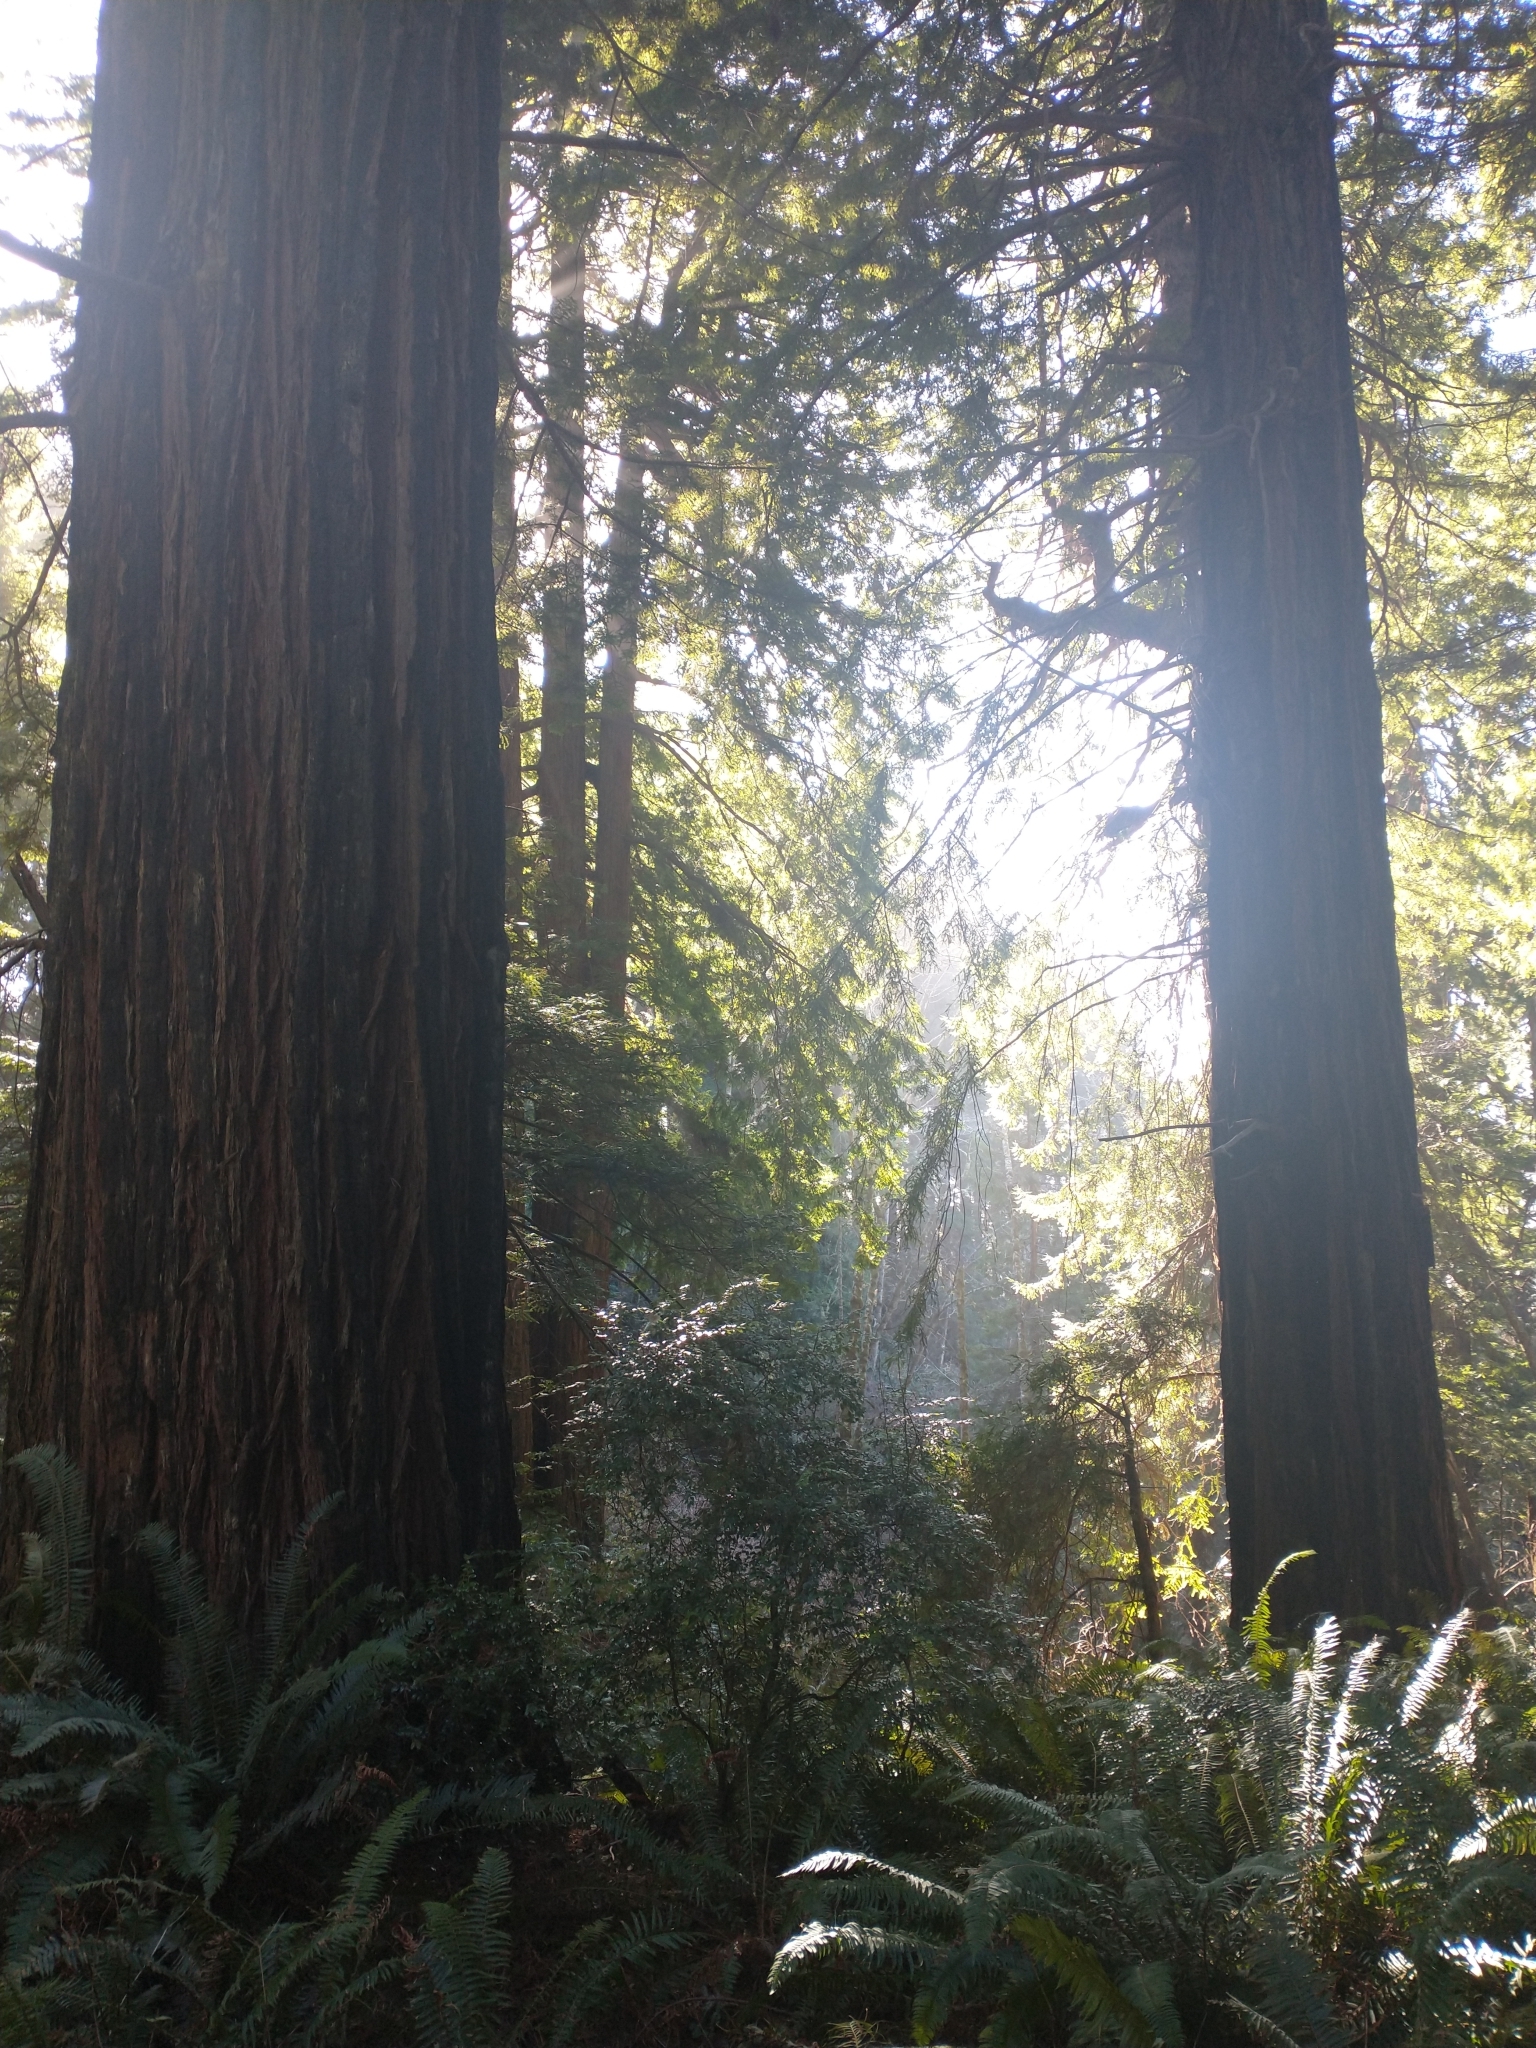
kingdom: Plantae
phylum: Tracheophyta
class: Pinopsida
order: Pinales
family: Cupressaceae
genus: Sequoia
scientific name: Sequoia sempervirens
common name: Coast redwood
